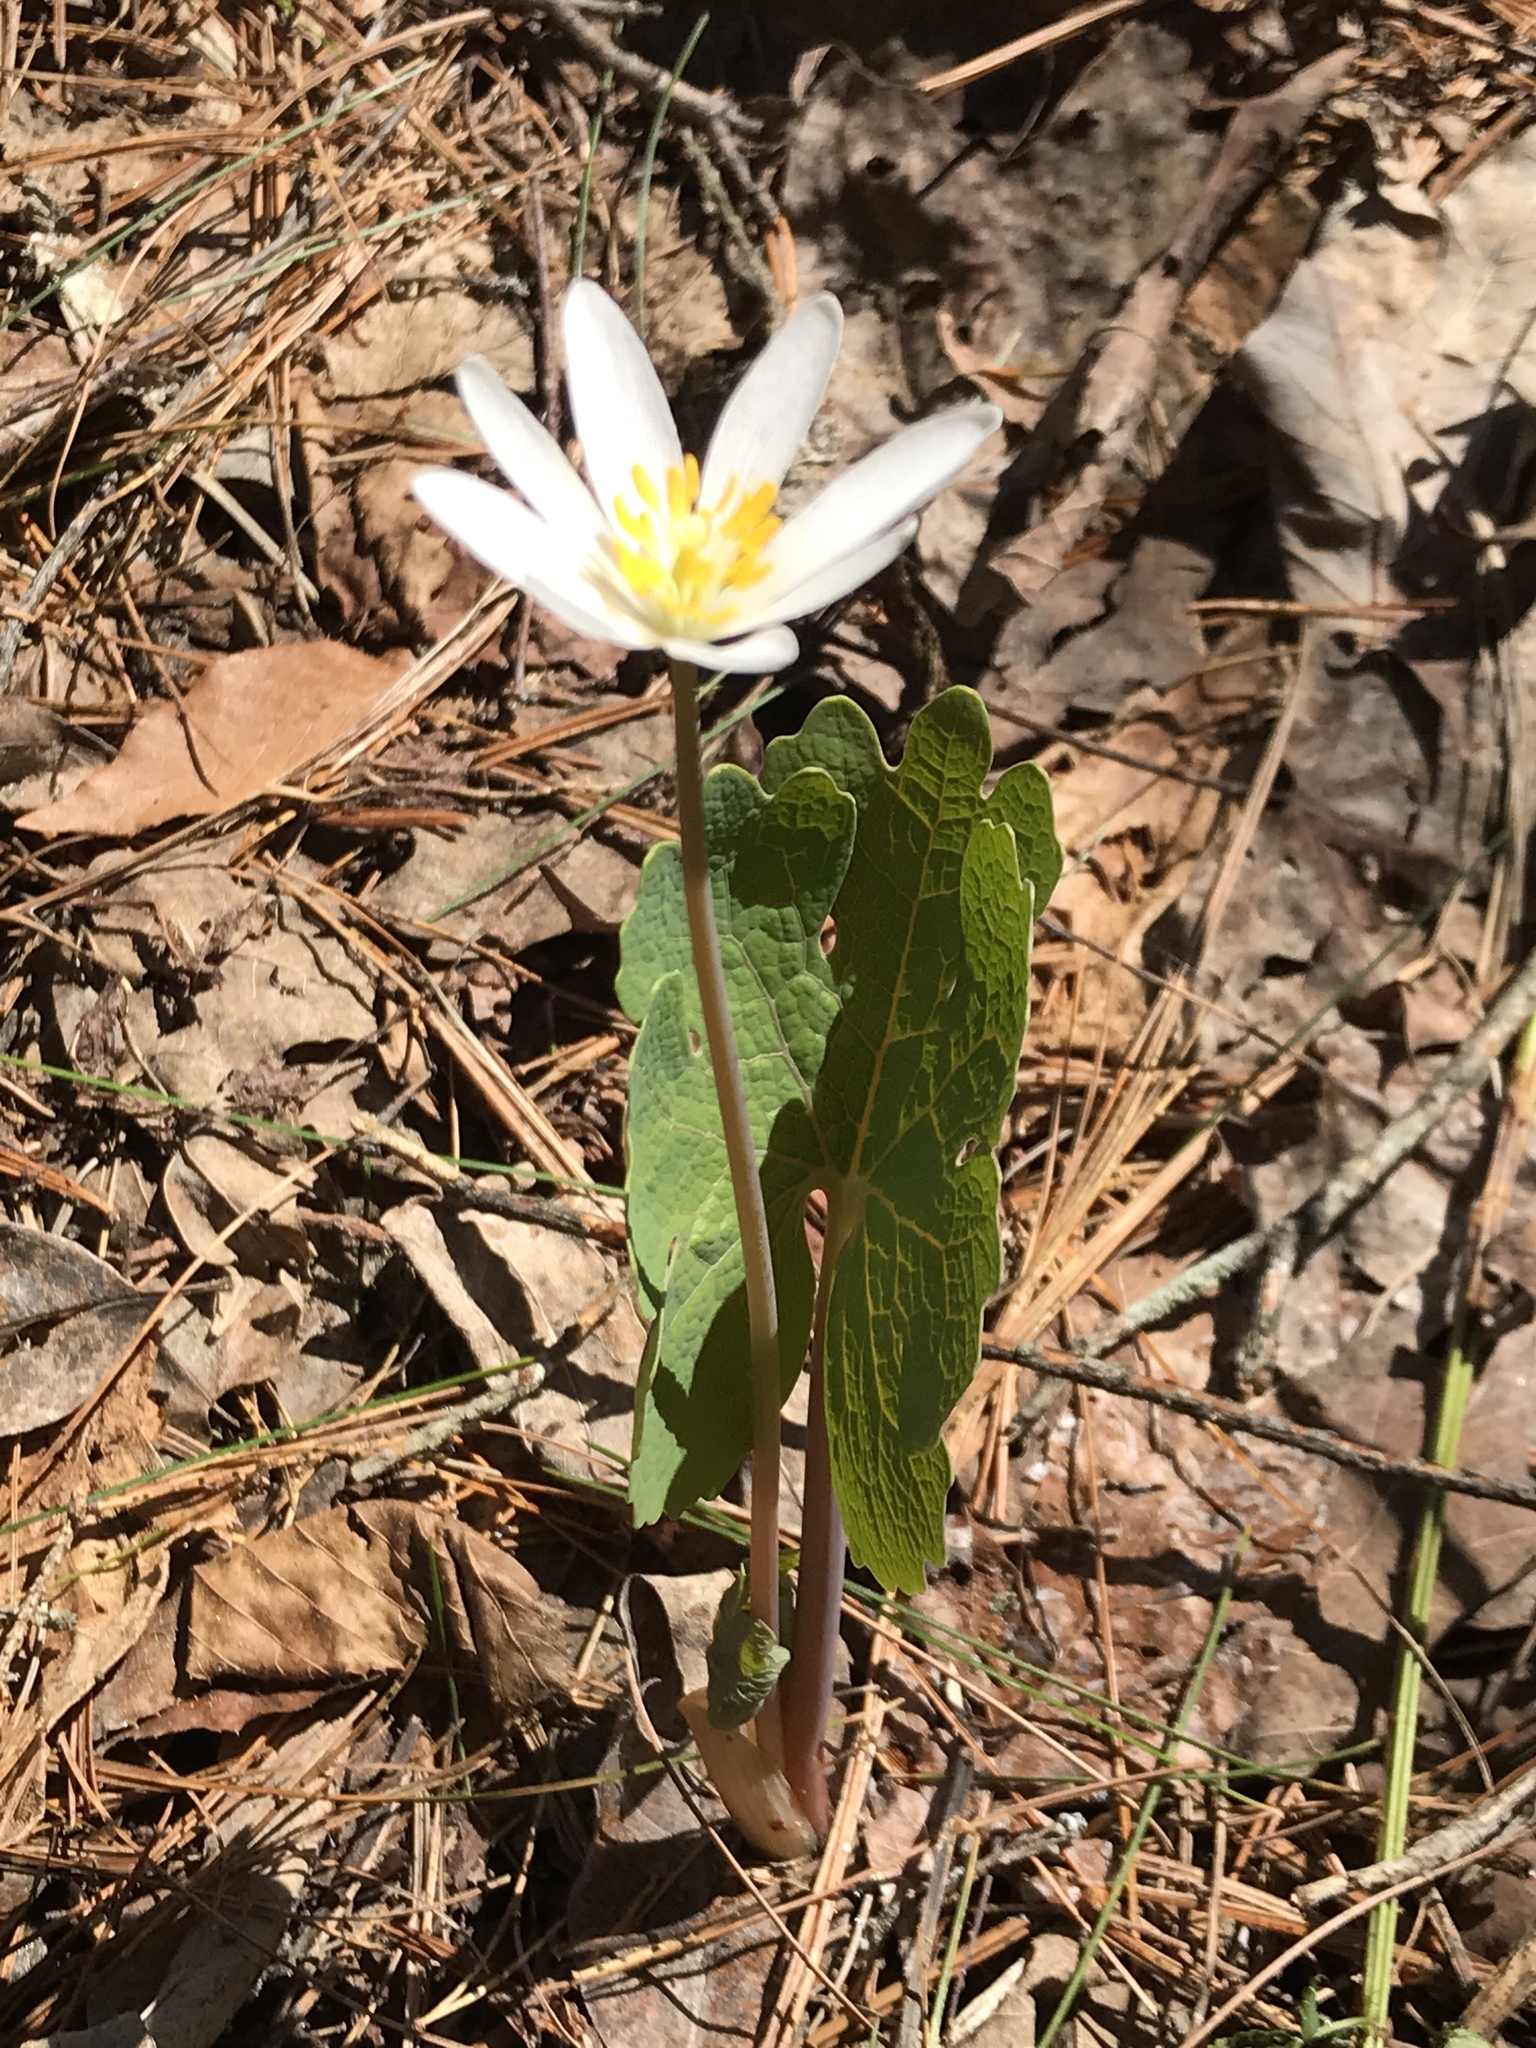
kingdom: Plantae
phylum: Tracheophyta
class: Magnoliopsida
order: Ranunculales
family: Papaveraceae
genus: Sanguinaria
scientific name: Sanguinaria canadensis
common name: Bloodroot
